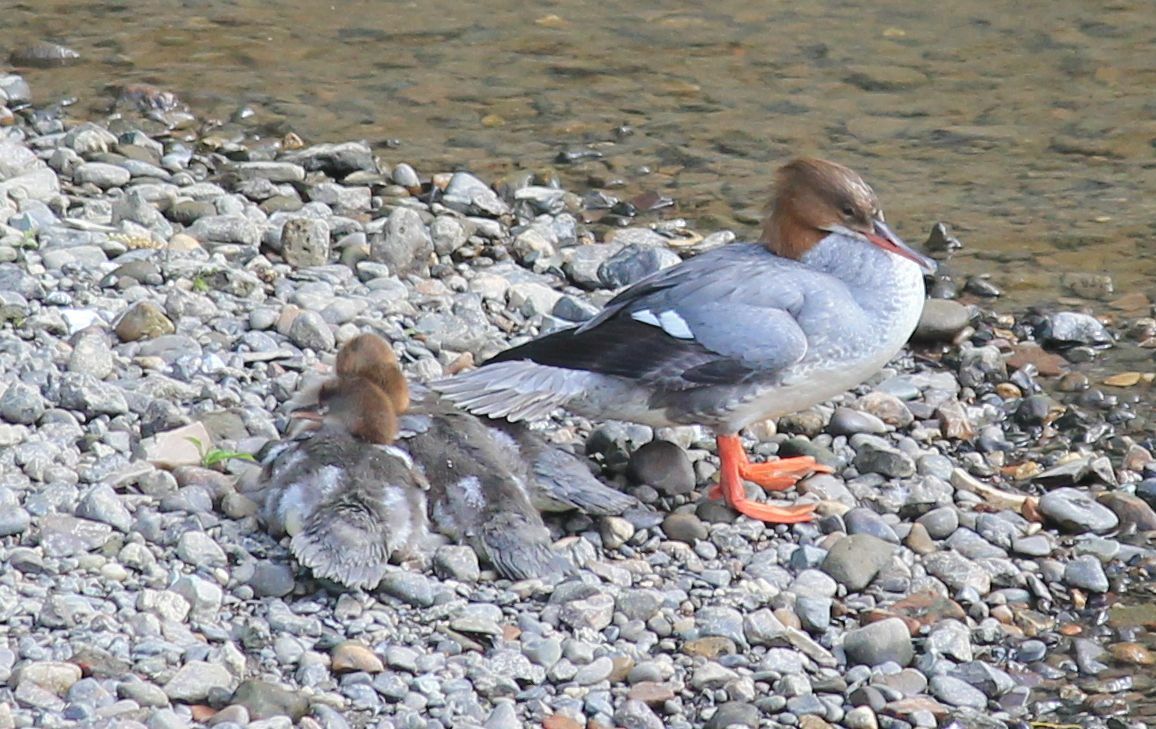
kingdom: Animalia
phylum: Chordata
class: Aves
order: Anseriformes
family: Anatidae
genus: Mergus
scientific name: Mergus merganser
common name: Common merganser
